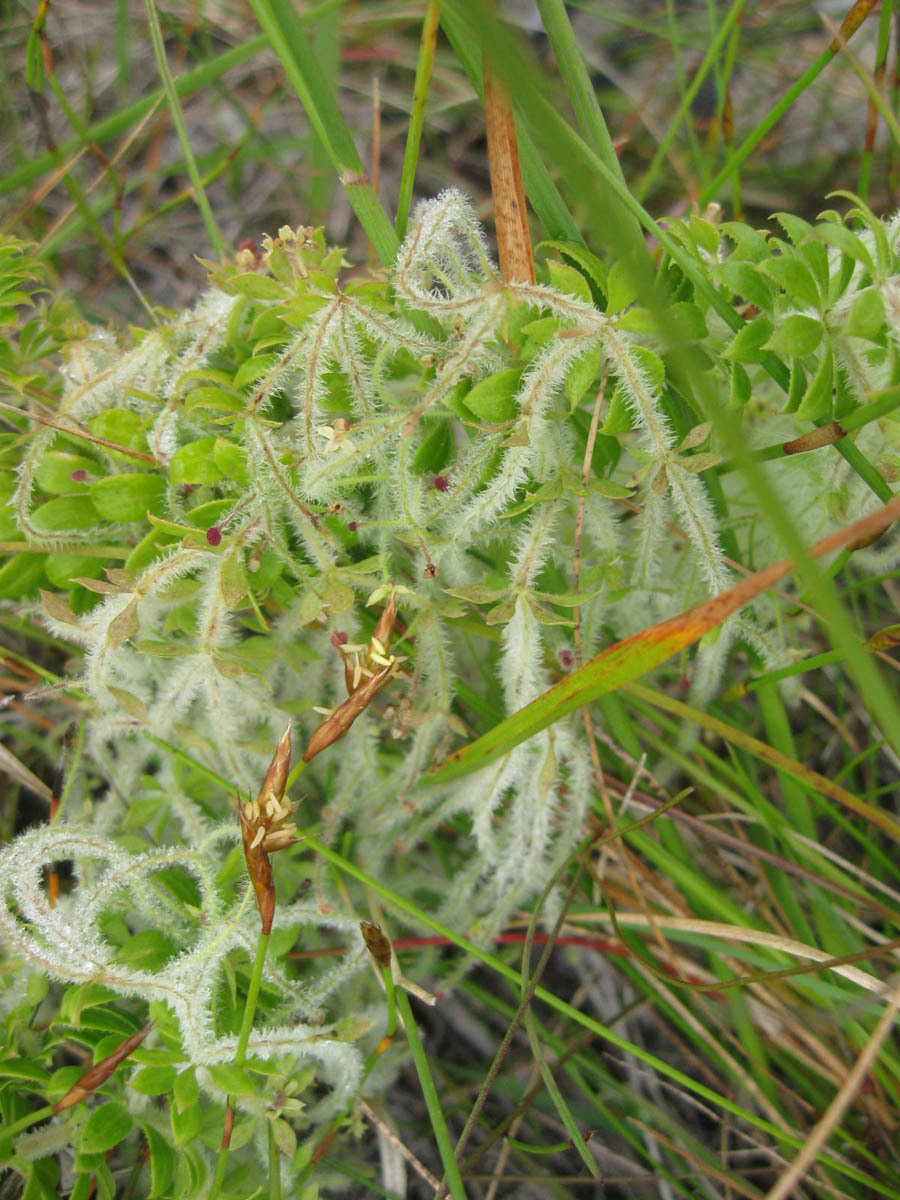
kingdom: Plantae
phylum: Tracheophyta
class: Magnoliopsida
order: Gentianales
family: Rubiaceae
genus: Galium
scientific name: Galium tomentosum
